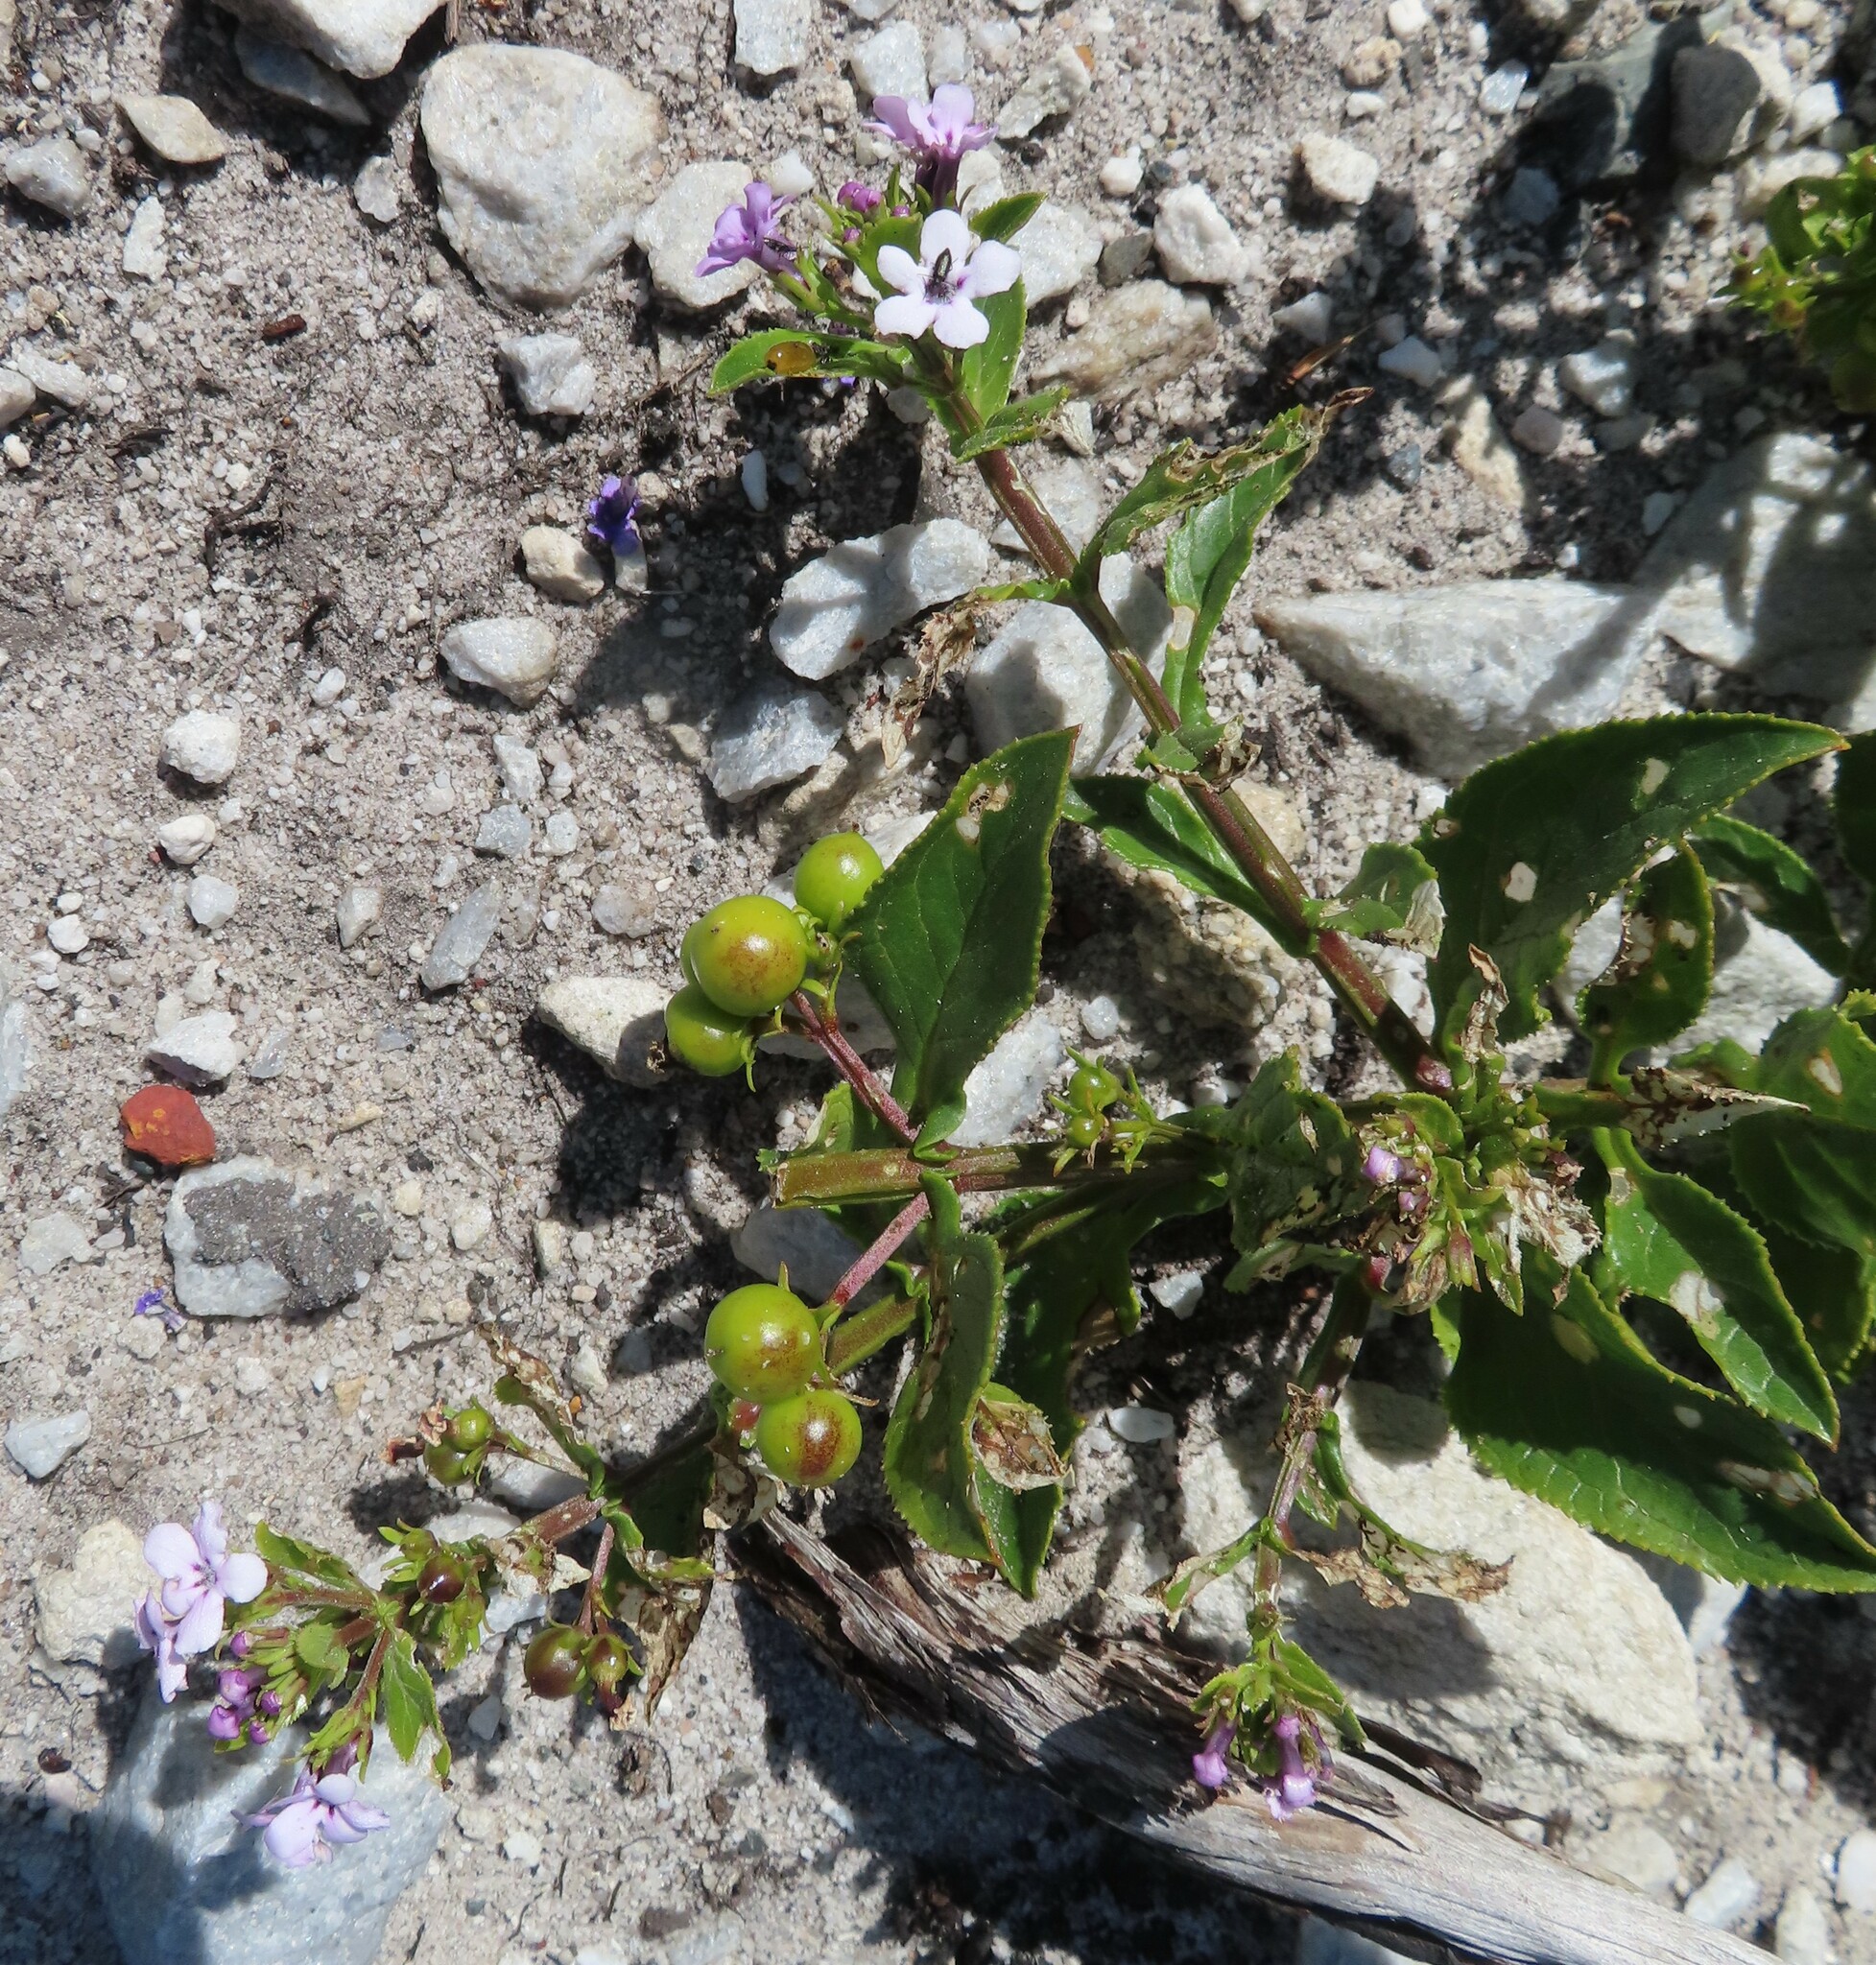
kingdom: Plantae
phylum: Tracheophyta
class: Magnoliopsida
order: Lamiales
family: Scrophulariaceae
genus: Teedia
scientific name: Teedia lucida
